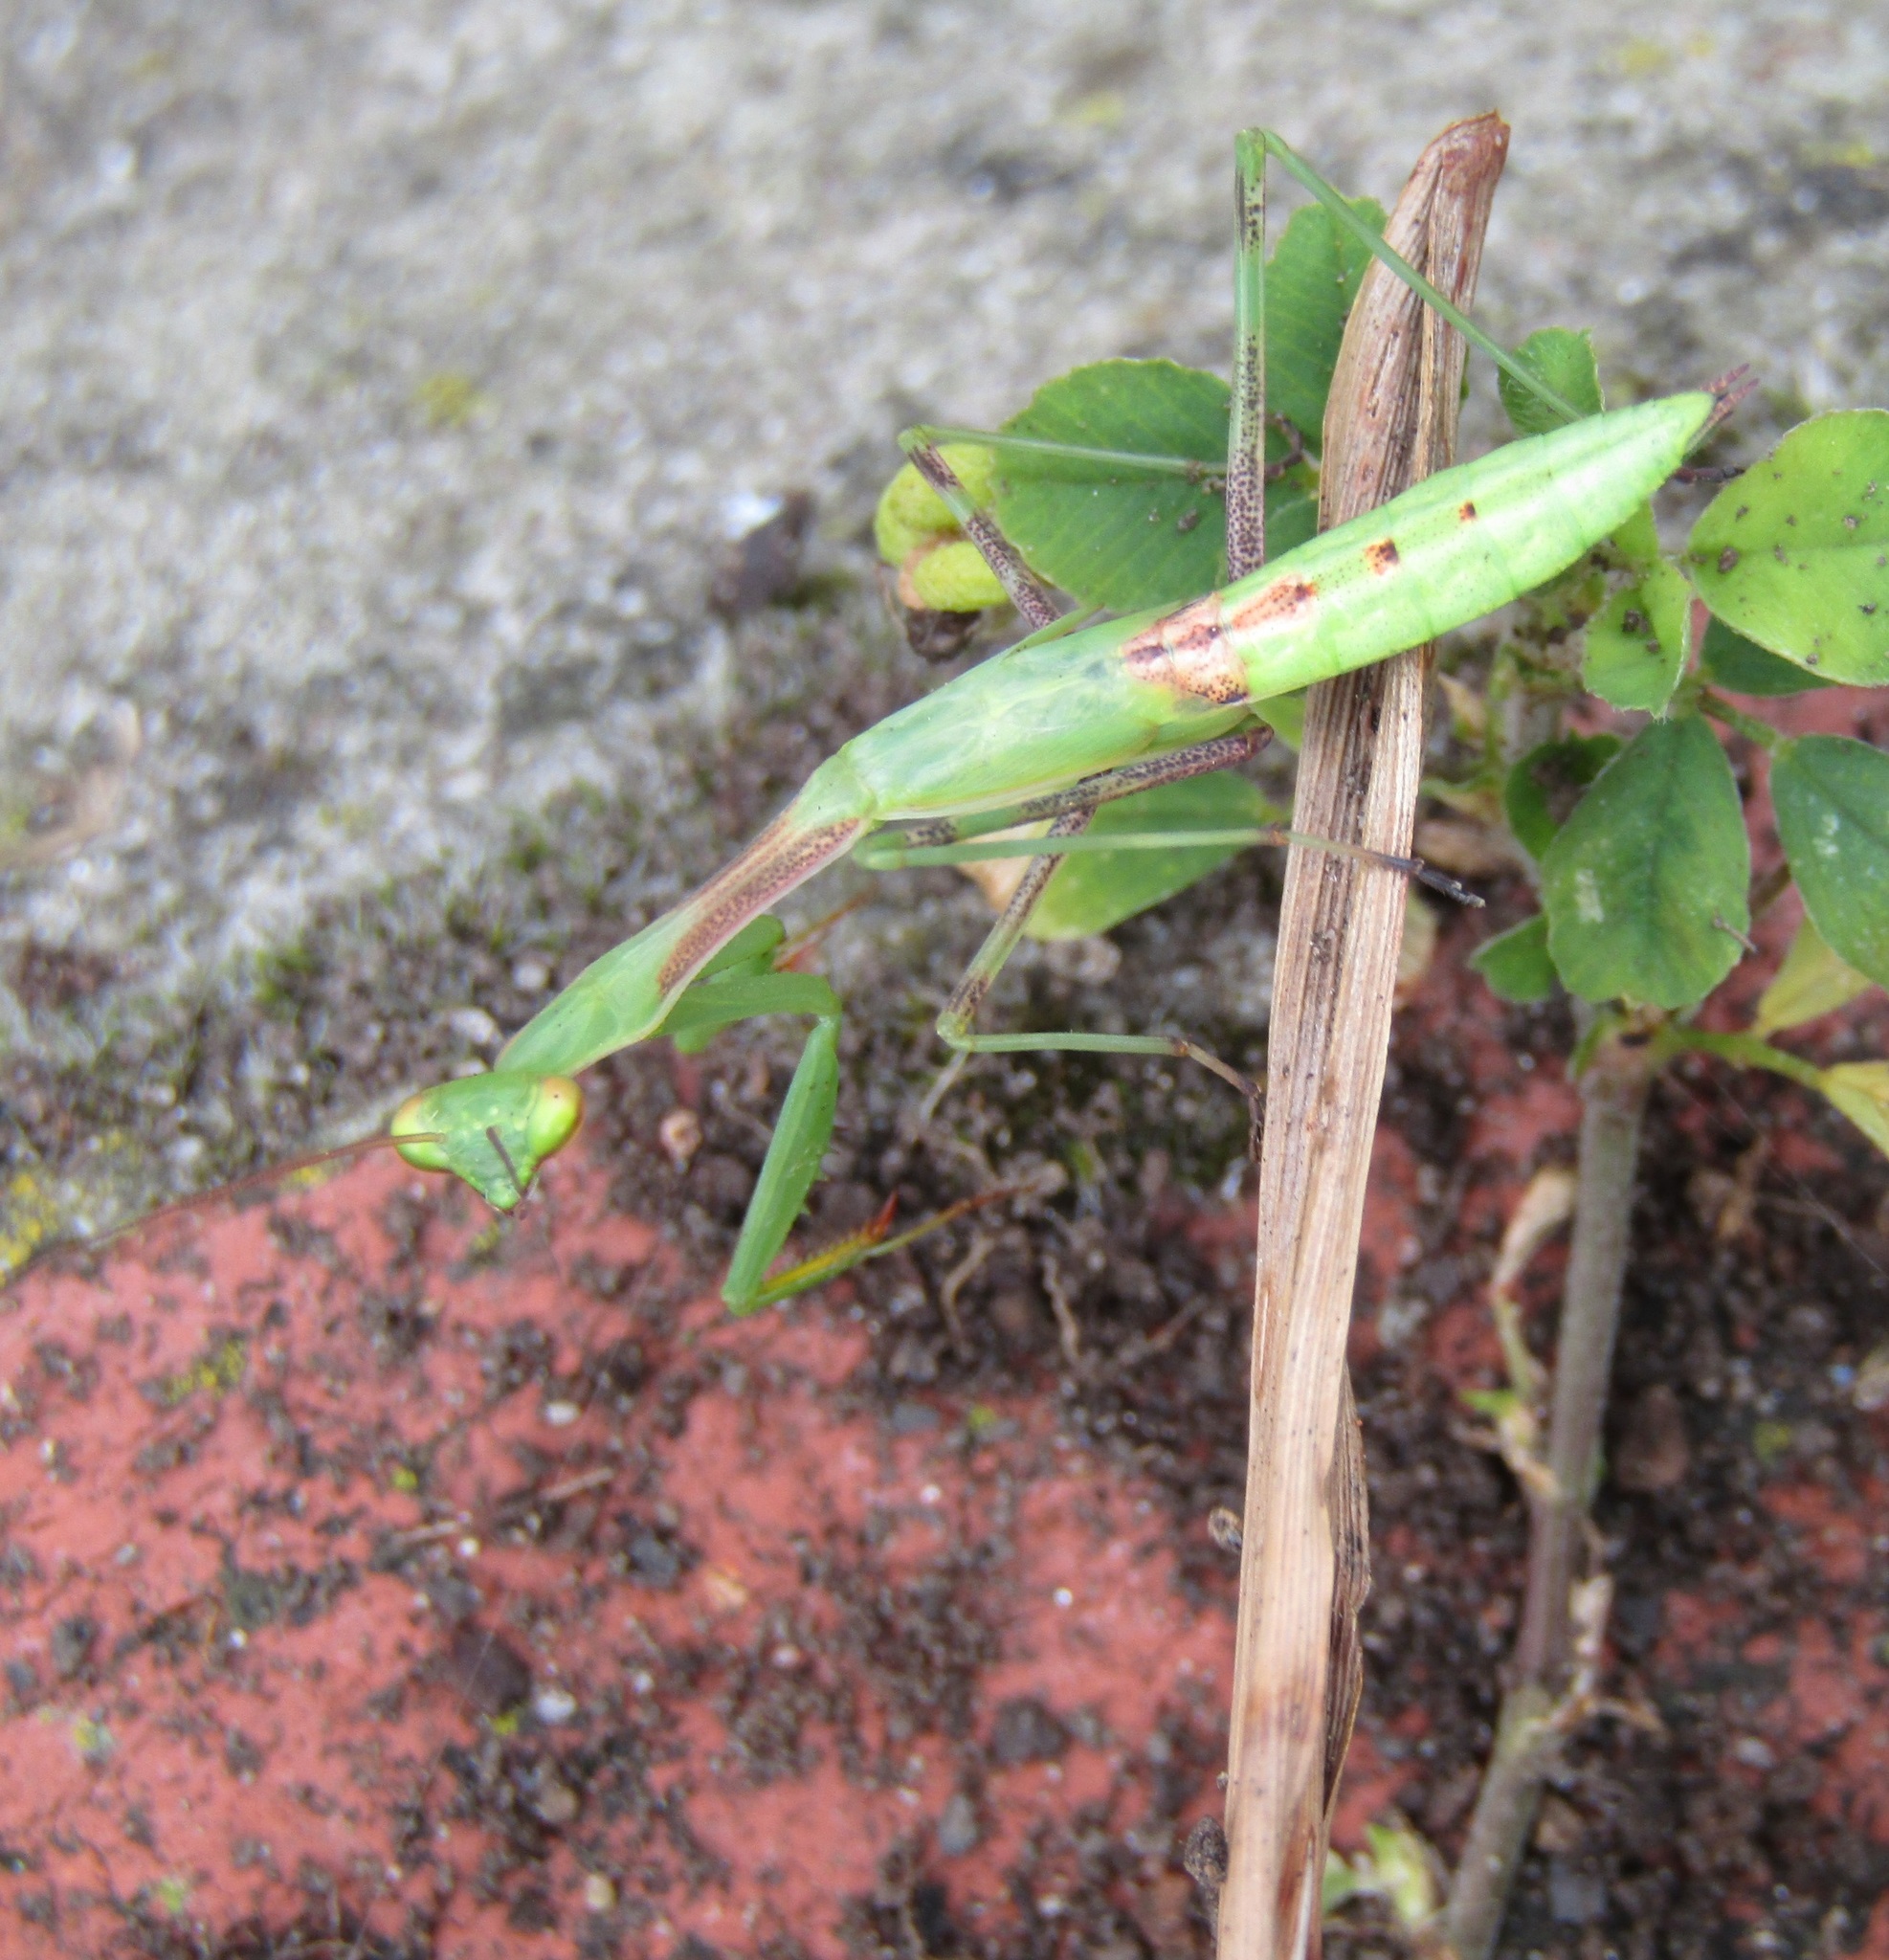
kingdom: Animalia
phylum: Arthropoda
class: Insecta
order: Mantodea
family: Miomantidae
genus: Miomantis
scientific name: Miomantis caffra
